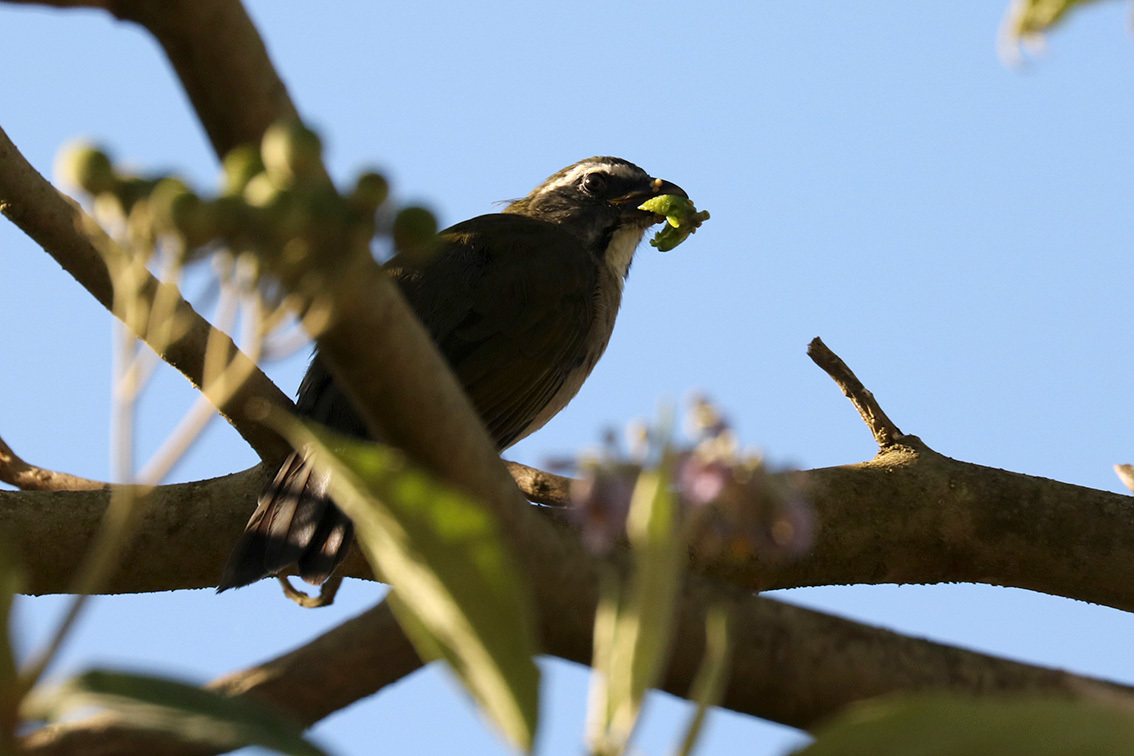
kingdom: Animalia
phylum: Chordata
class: Aves
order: Passeriformes
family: Thraupidae
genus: Saltator
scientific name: Saltator similis
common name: Green-winged saltator
